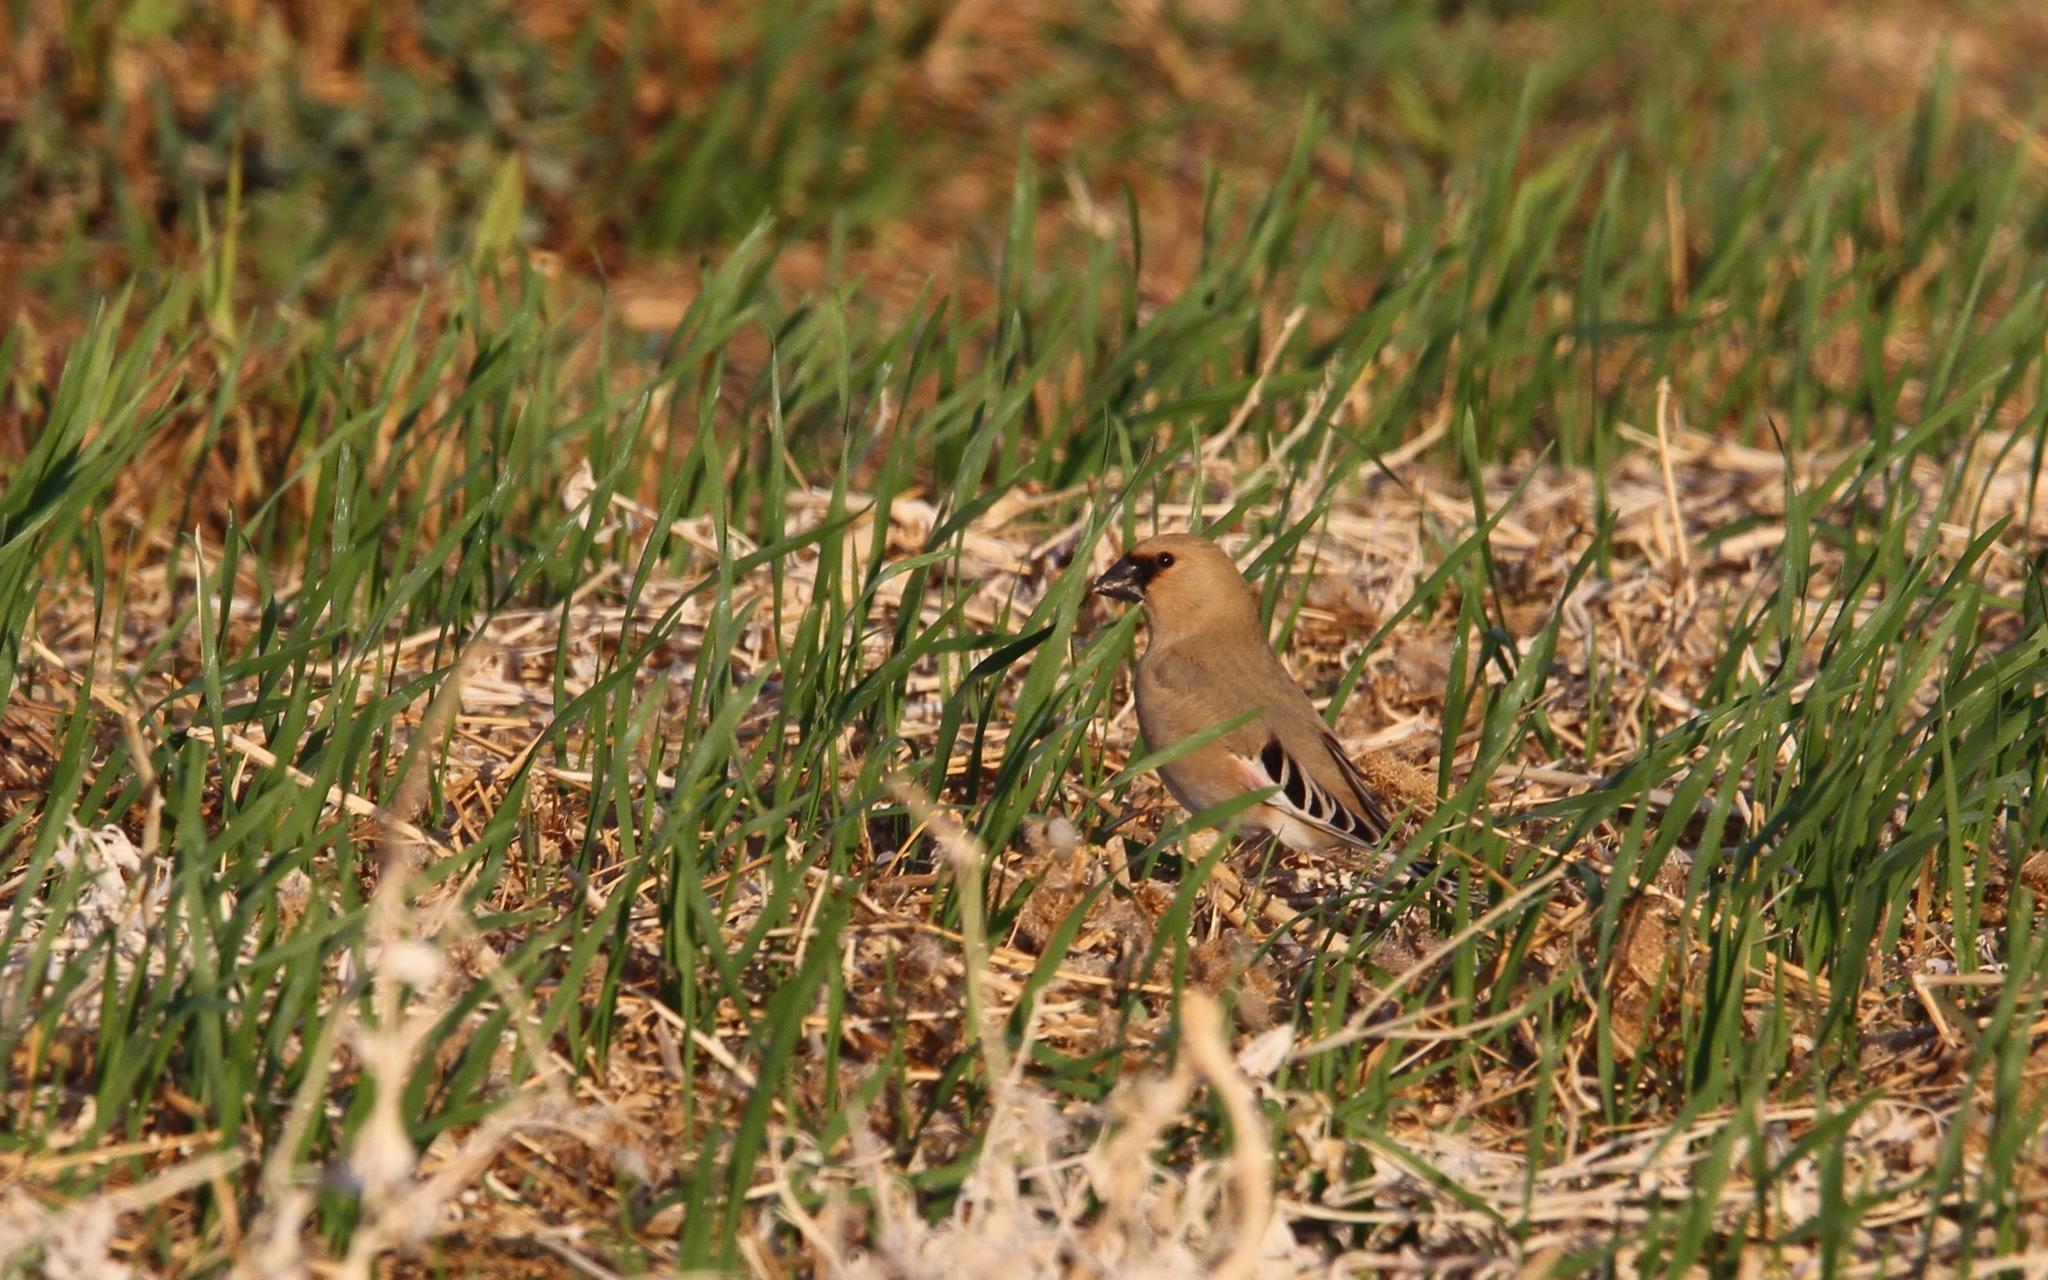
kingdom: Animalia
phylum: Chordata
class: Aves
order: Passeriformes
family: Fringillidae
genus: Rhodospiza
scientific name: Rhodospiza obsoleta
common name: Desert finch
